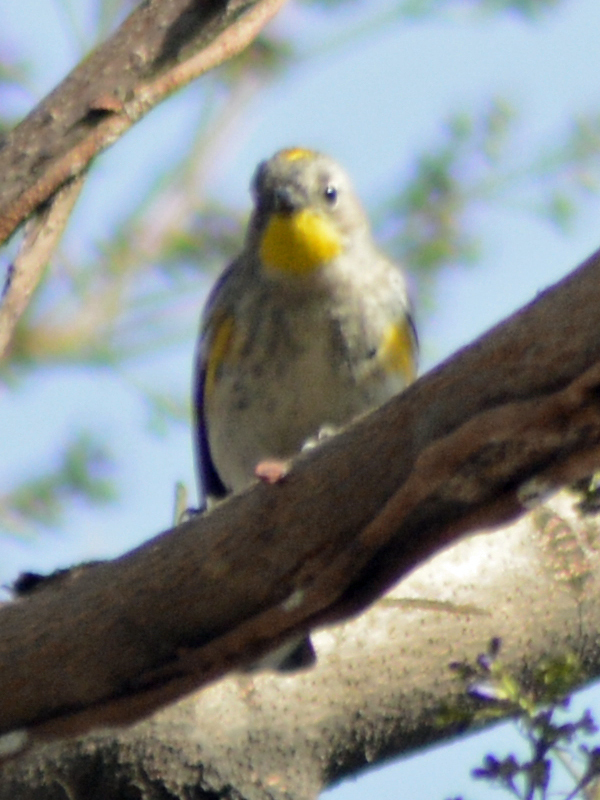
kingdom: Animalia
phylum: Chordata
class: Aves
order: Passeriformes
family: Parulidae
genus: Setophaga
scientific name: Setophaga auduboni
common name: Audubon's warbler
